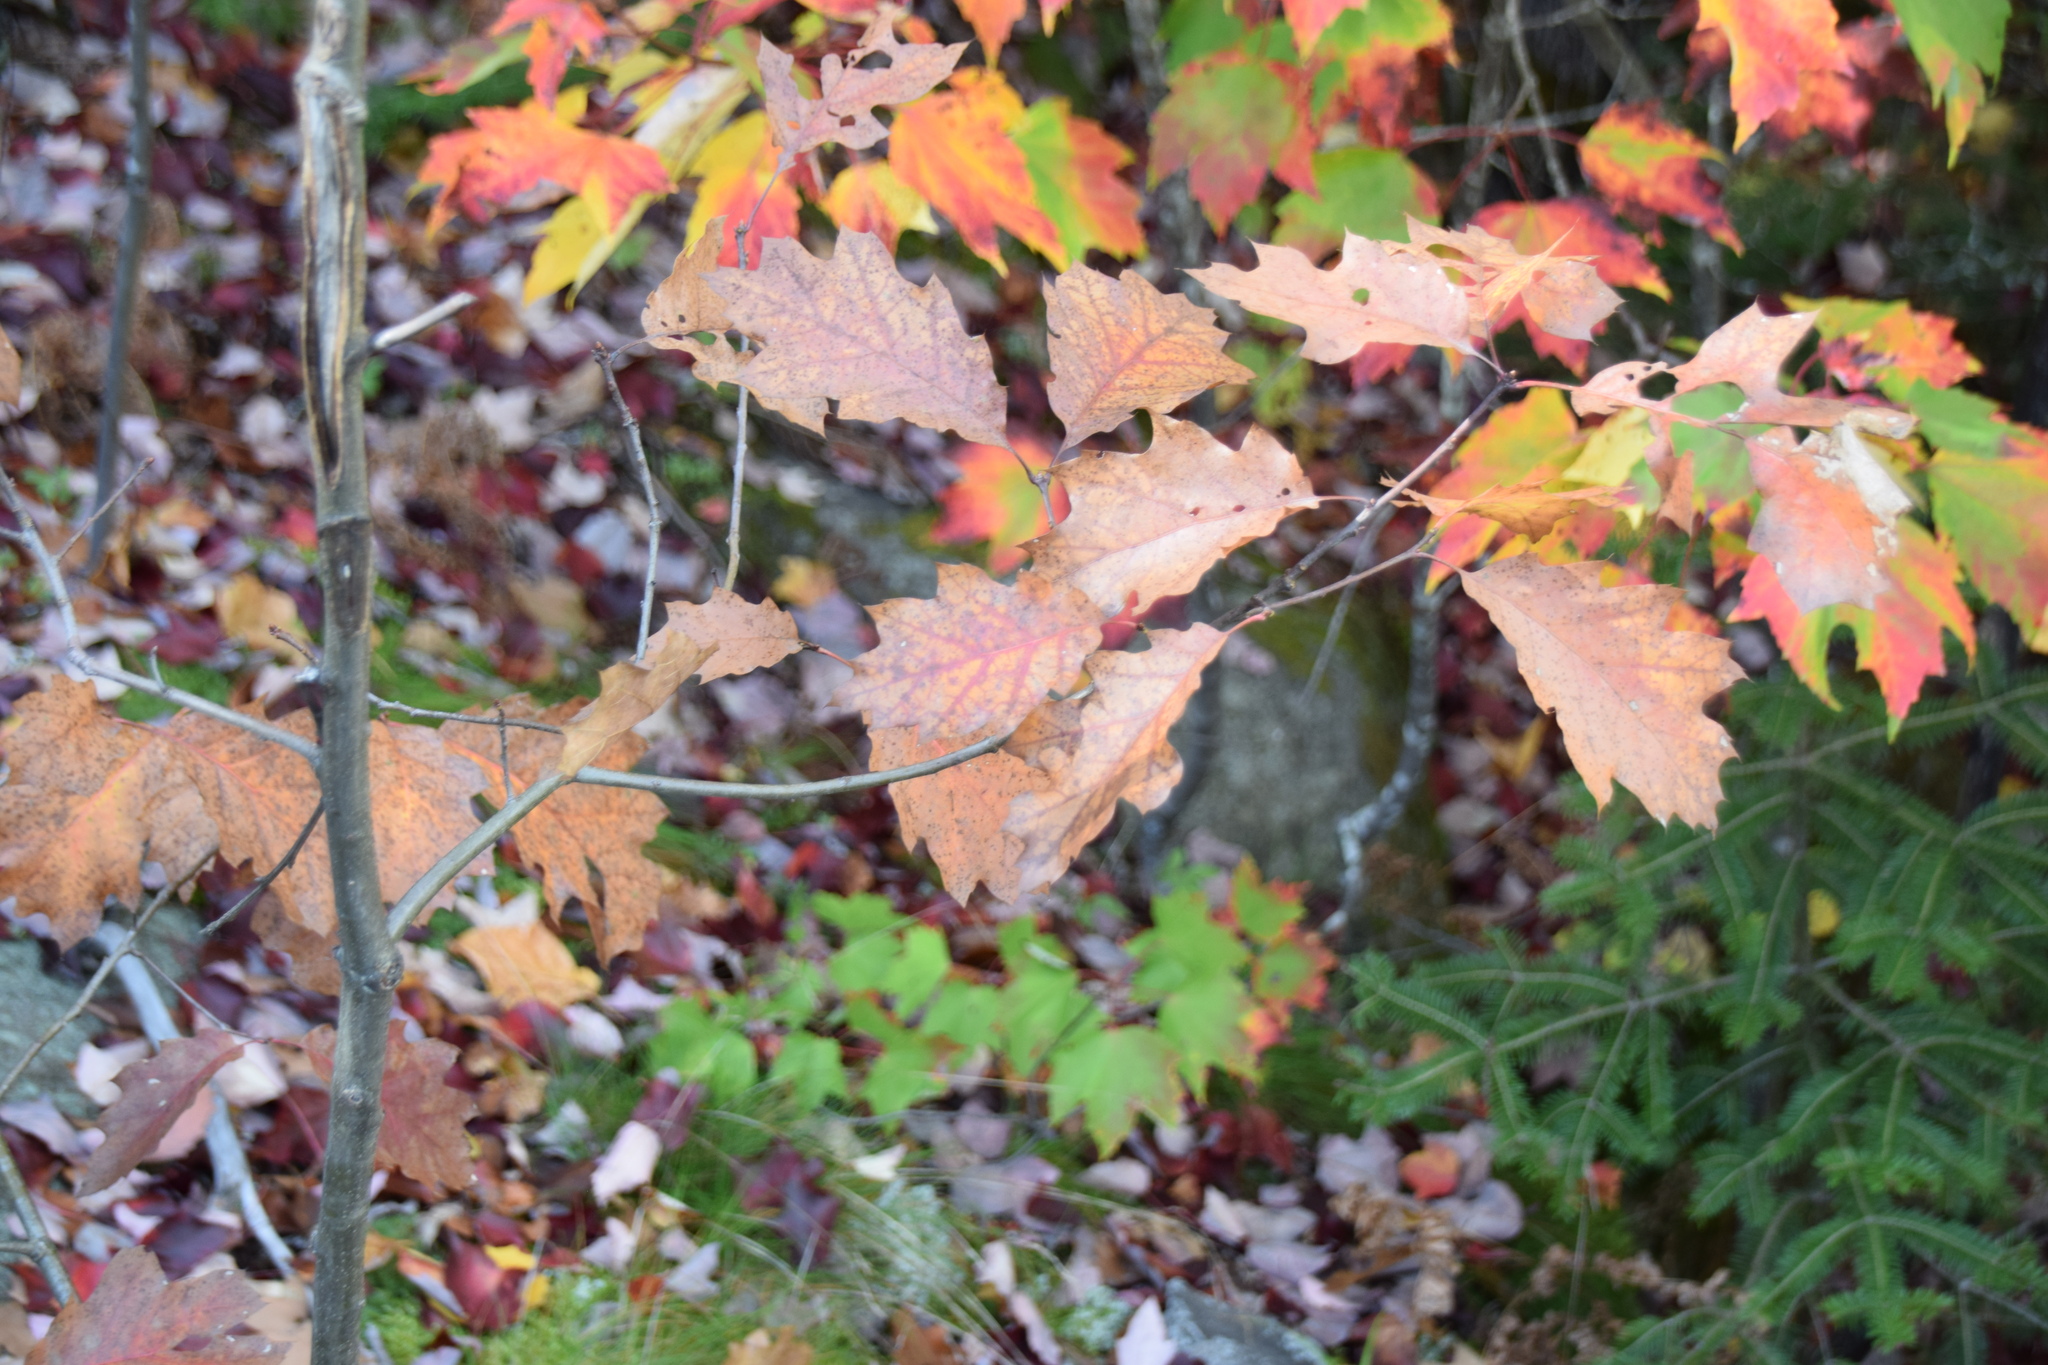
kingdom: Plantae
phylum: Tracheophyta
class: Magnoliopsida
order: Fagales
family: Fagaceae
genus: Quercus
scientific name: Quercus rubra
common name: Red oak
